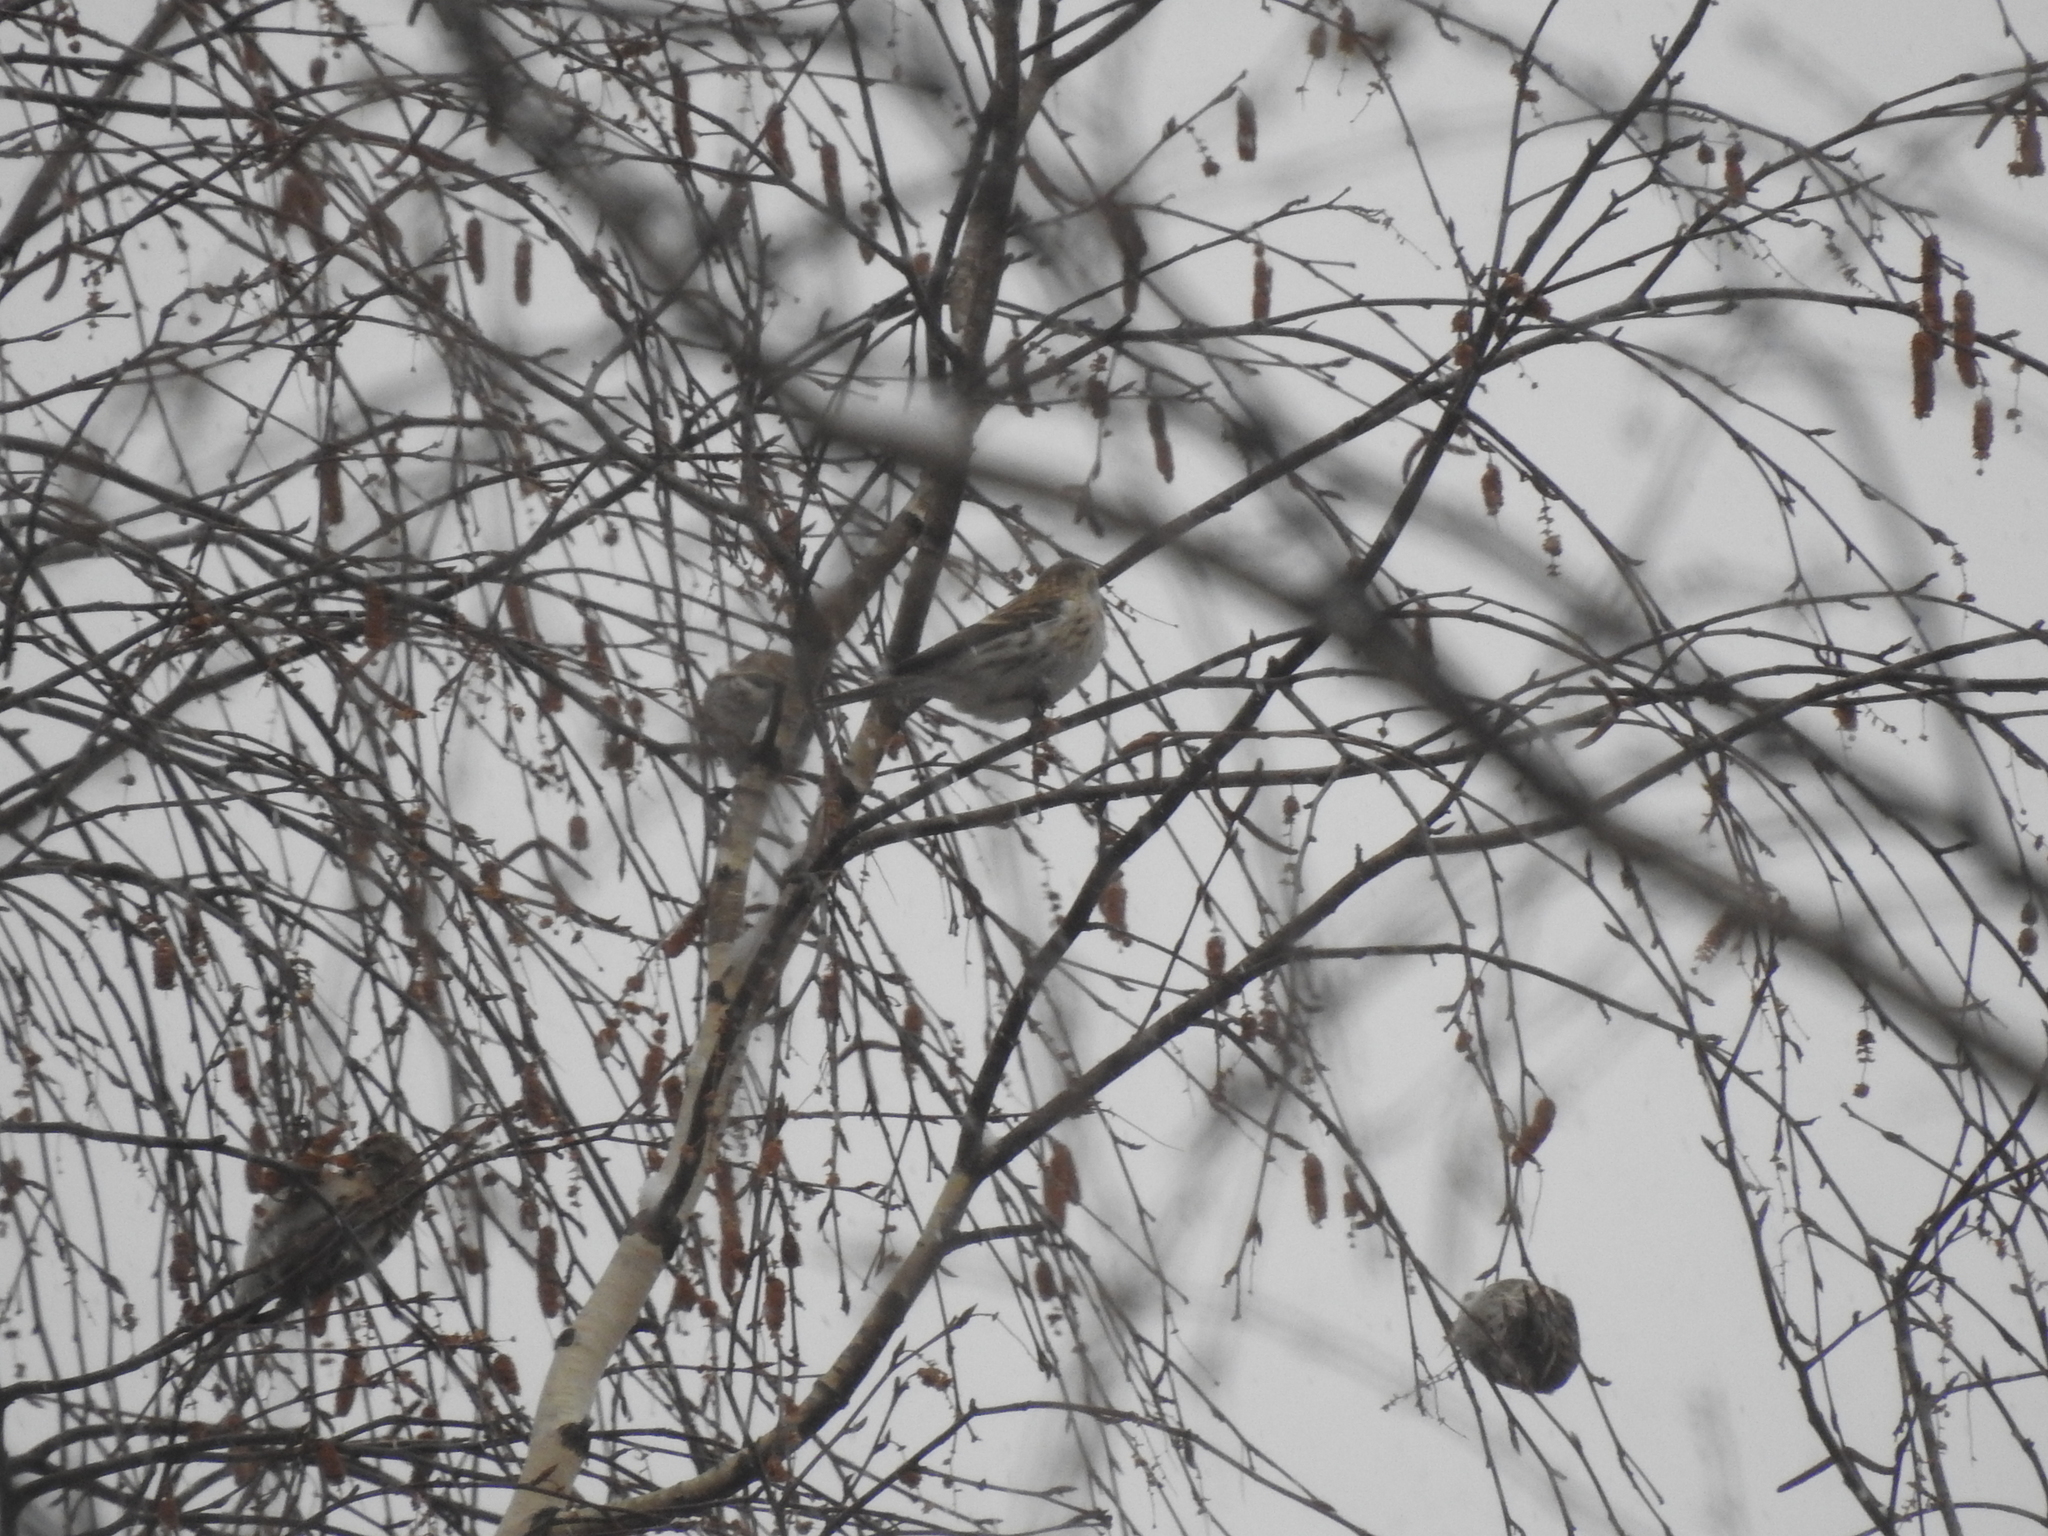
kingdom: Animalia
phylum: Chordata
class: Aves
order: Passeriformes
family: Fringillidae
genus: Acanthis
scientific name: Acanthis flammea
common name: Common redpoll
